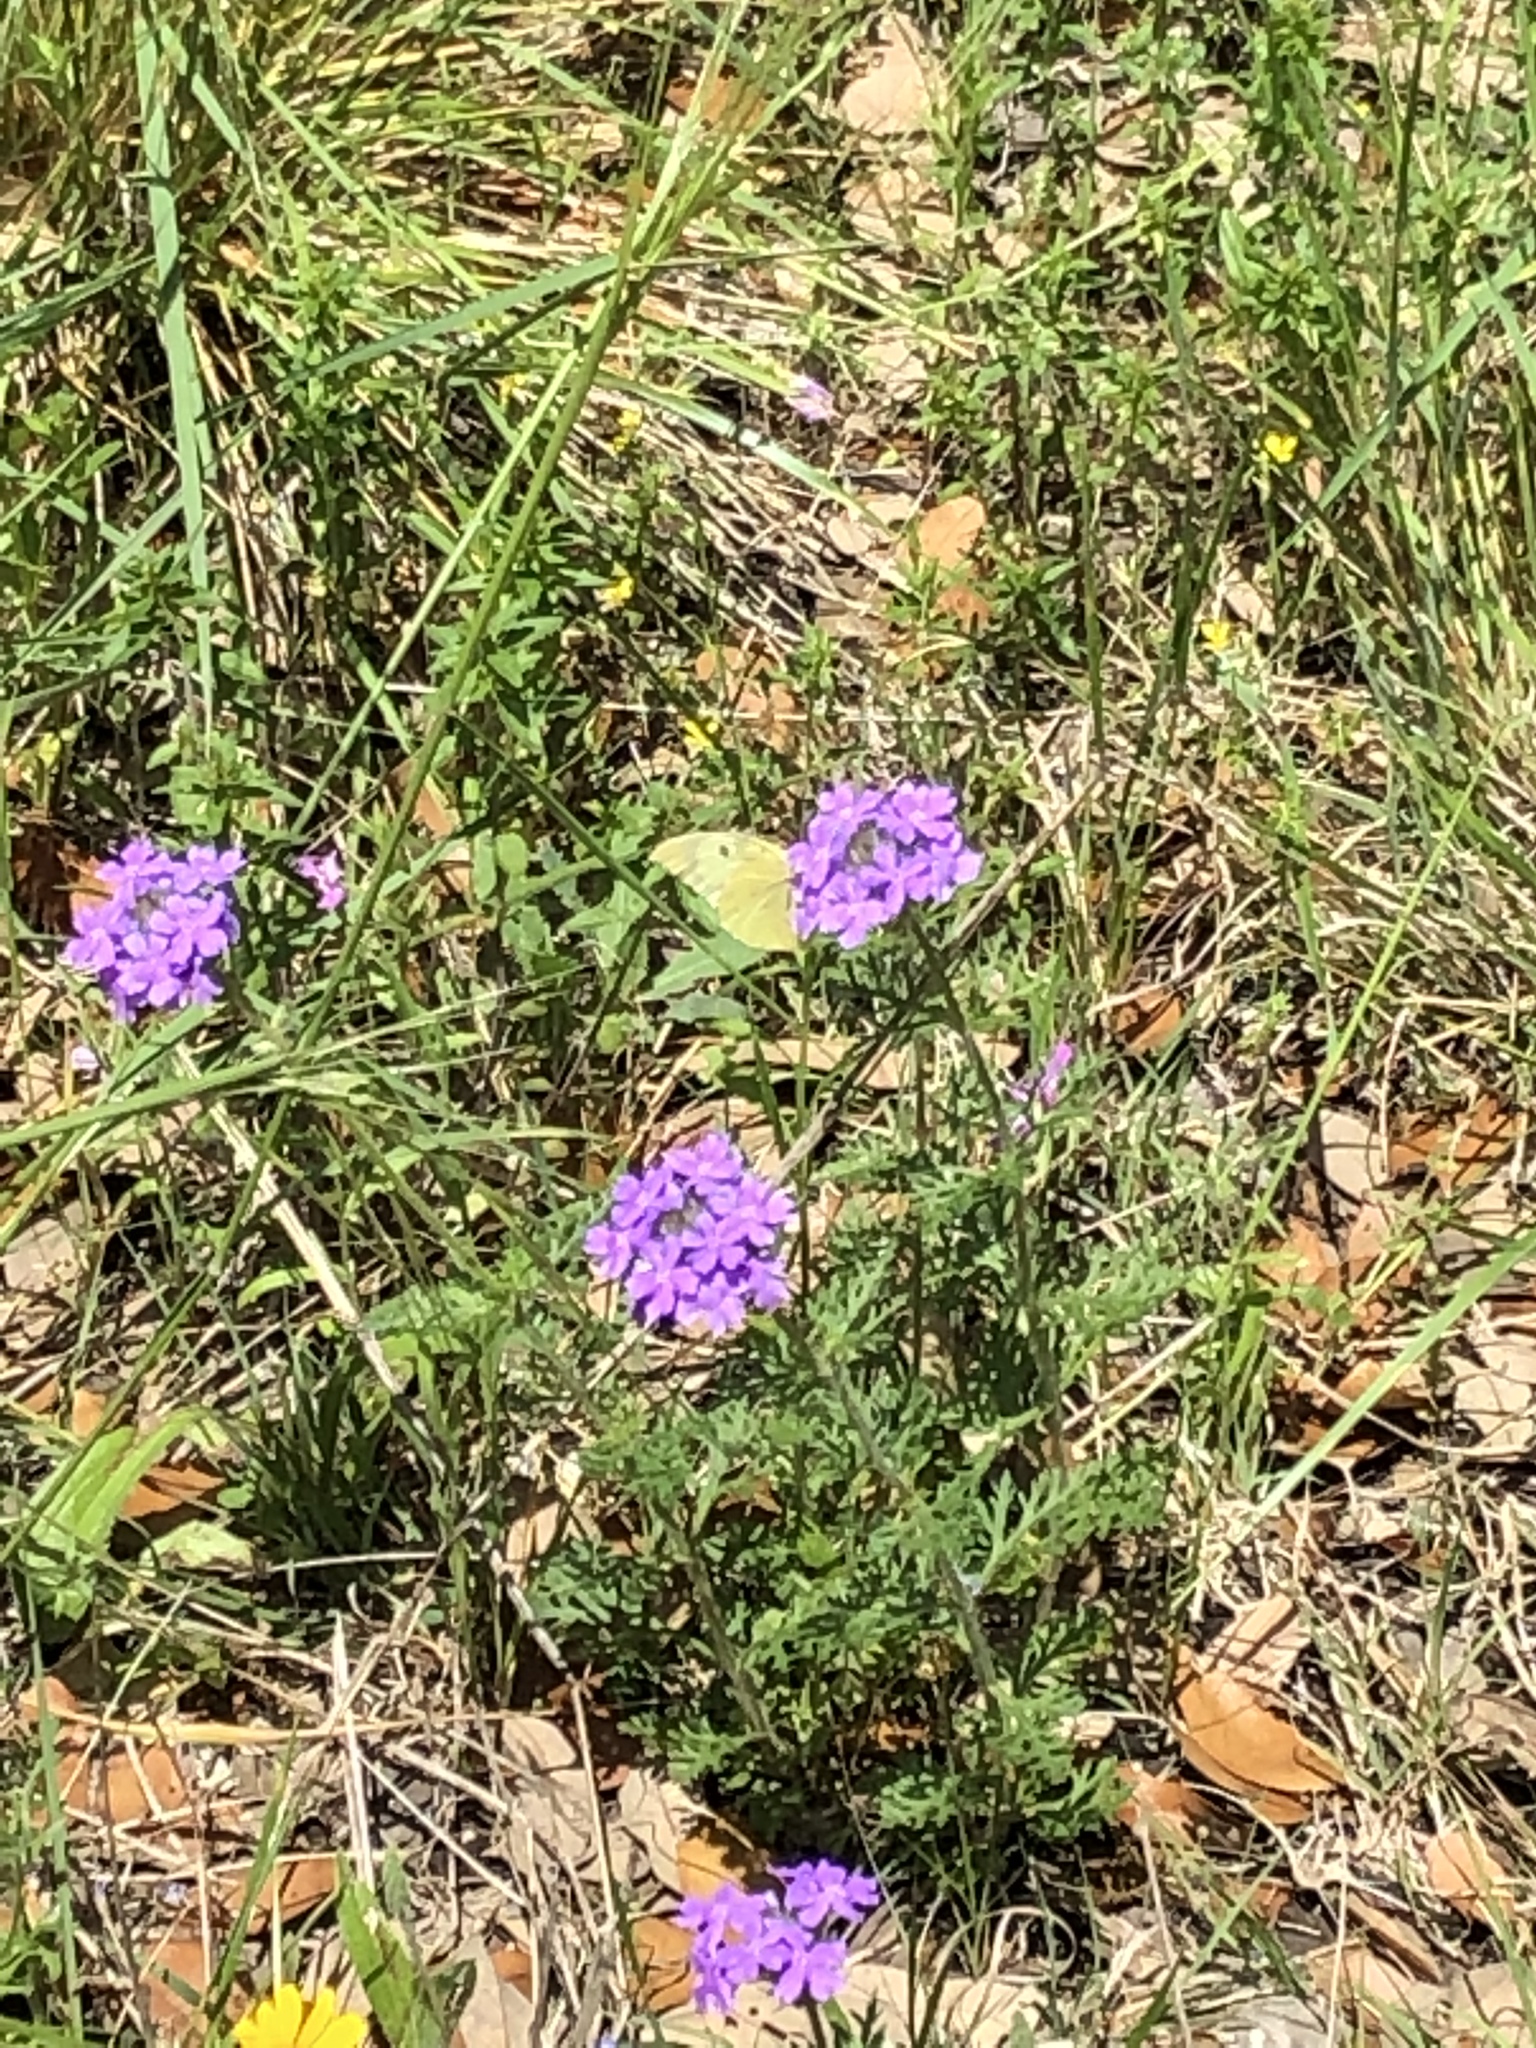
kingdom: Animalia
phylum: Arthropoda
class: Insecta
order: Lepidoptera
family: Pieridae
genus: Zerene
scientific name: Zerene cesonia
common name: Southern dogface
